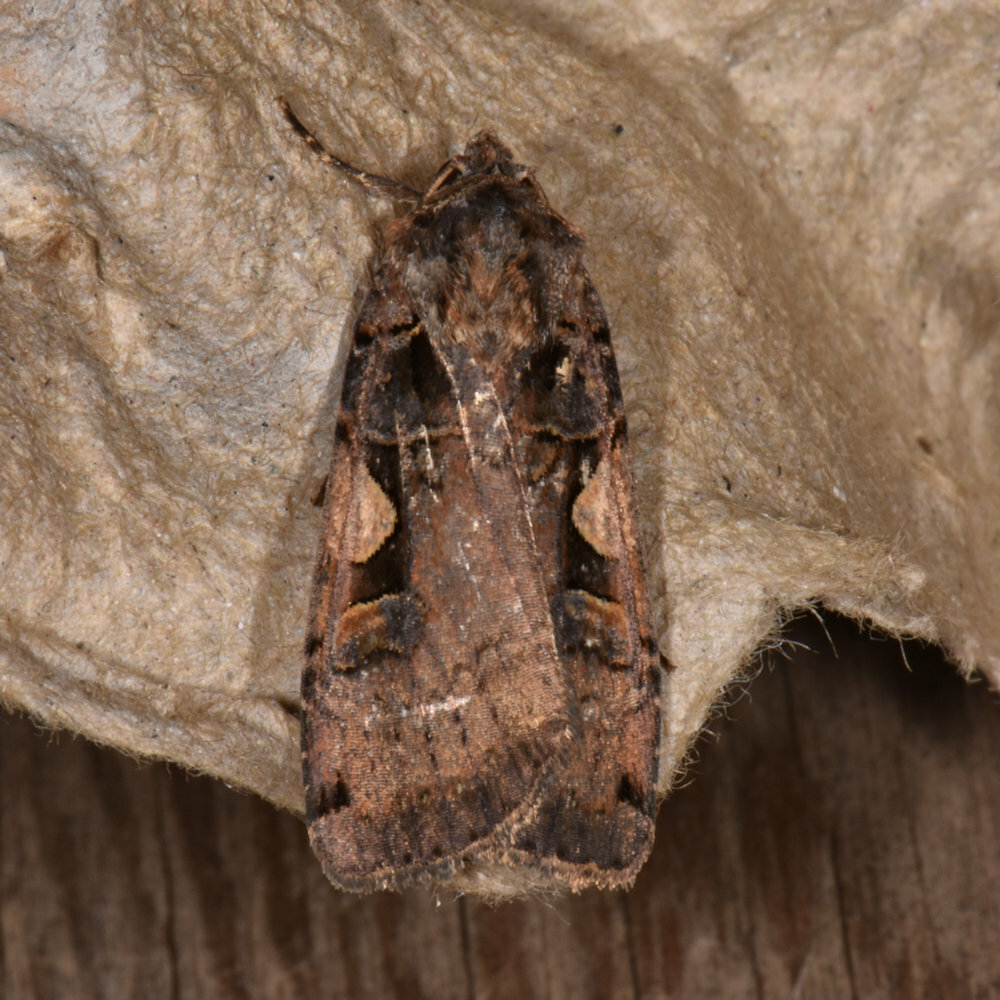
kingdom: Animalia
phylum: Arthropoda
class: Insecta
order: Lepidoptera
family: Noctuidae
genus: Xestia
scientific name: Xestia
